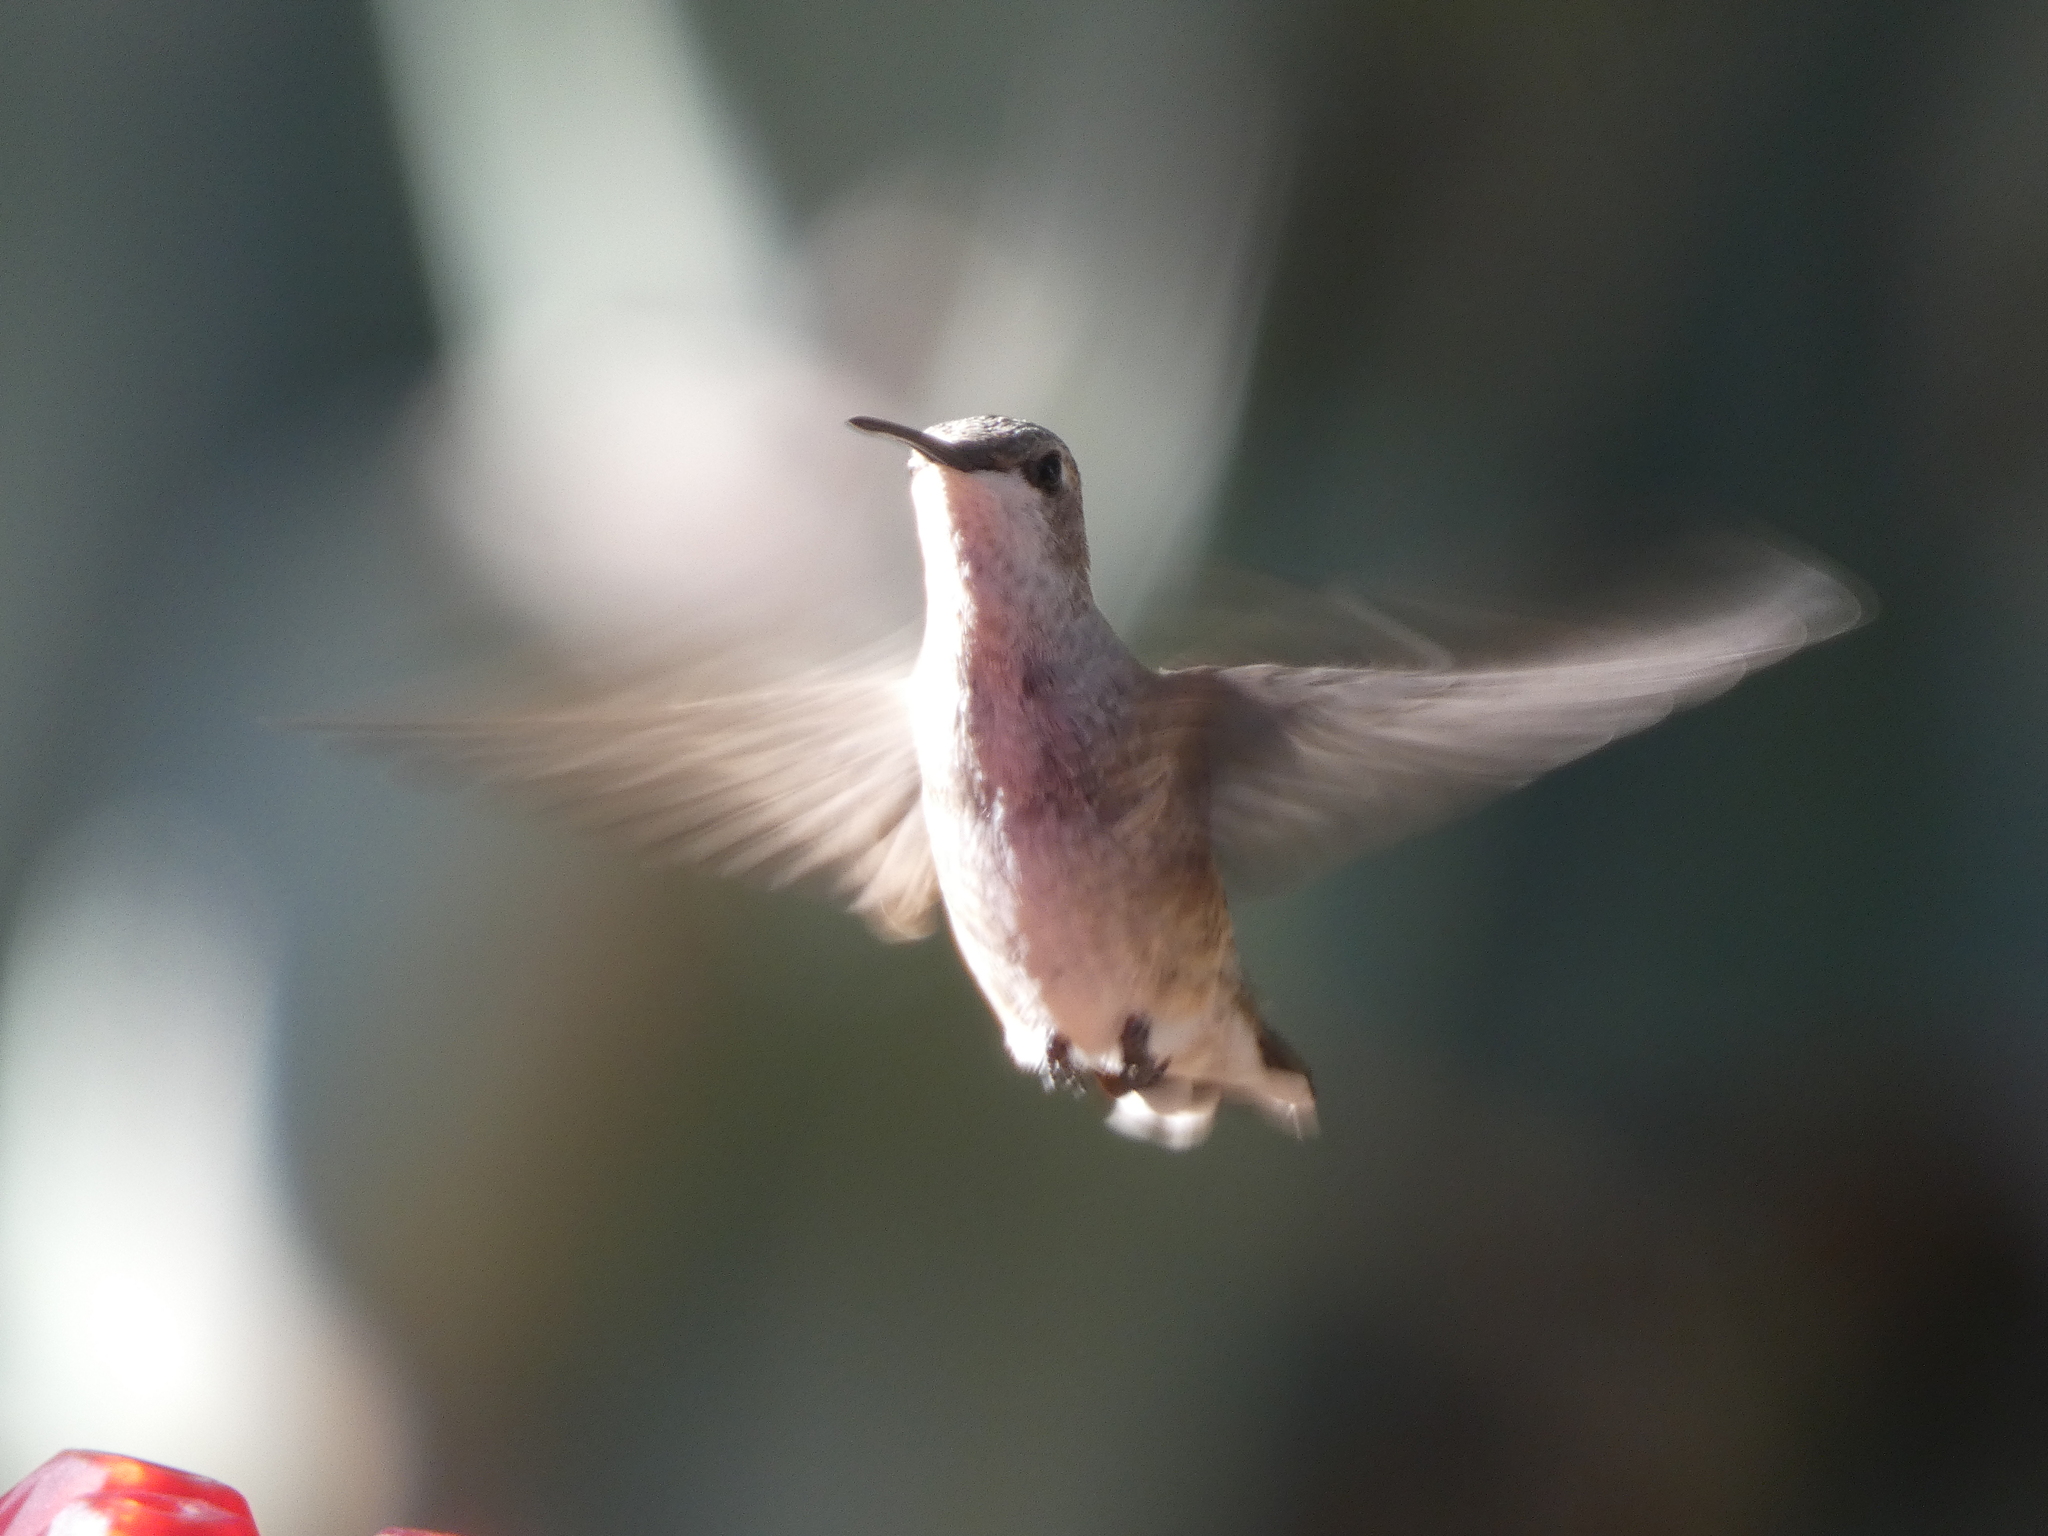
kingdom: Animalia
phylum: Chordata
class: Aves
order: Apodiformes
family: Trochilidae
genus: Archilochus
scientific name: Archilochus alexandri
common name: Black-chinned hummingbird
